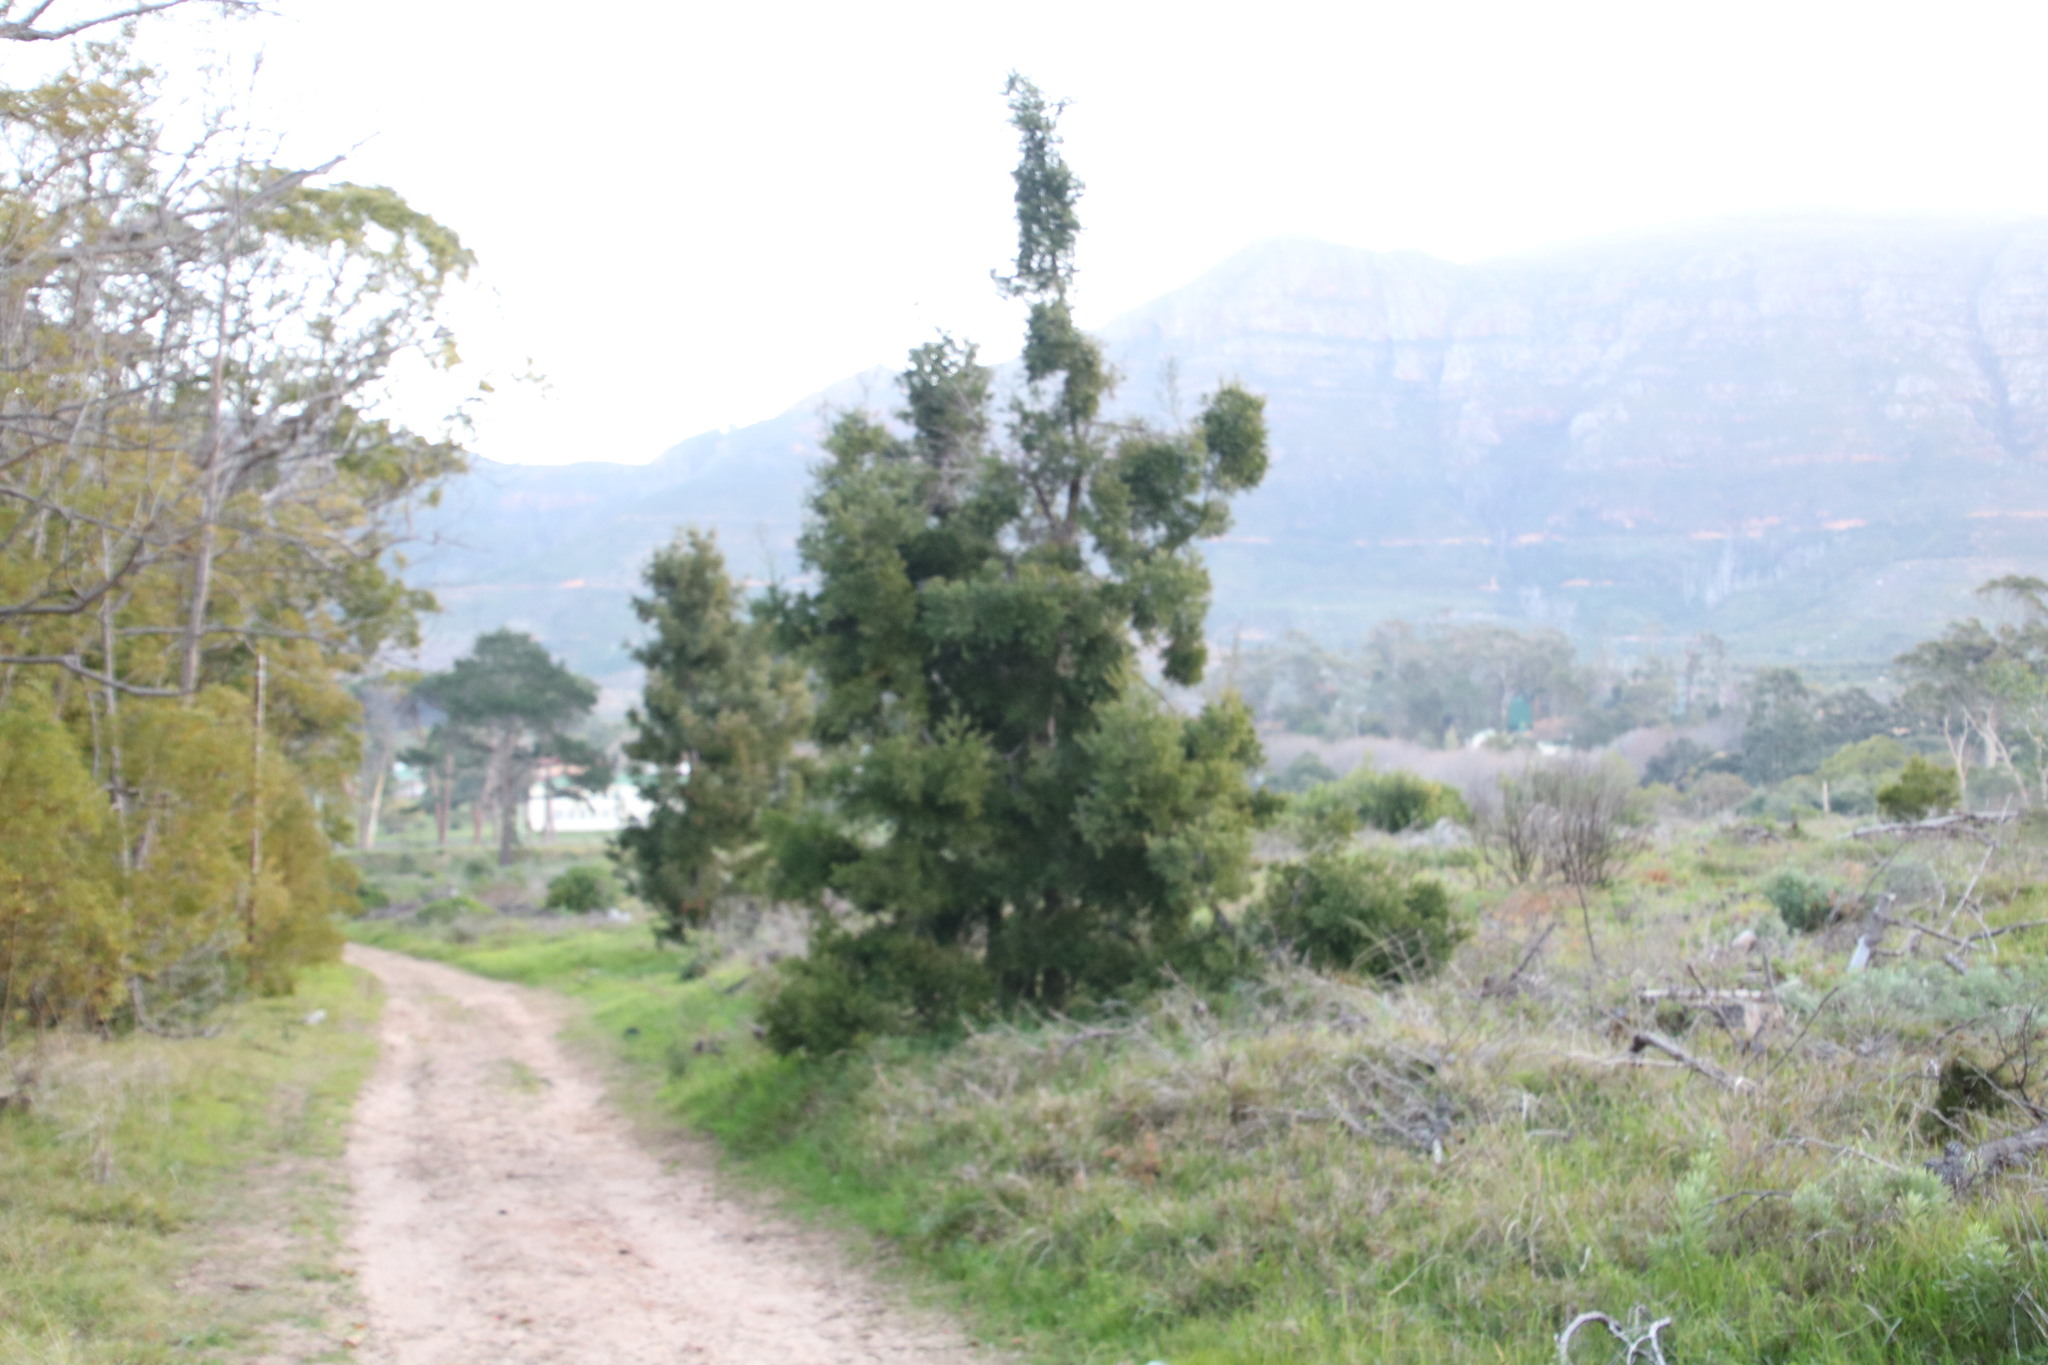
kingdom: Plantae
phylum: Tracheophyta
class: Pinopsida
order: Pinales
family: Podocarpaceae
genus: Afrocarpus
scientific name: Afrocarpus falcatus
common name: Bastard yellowwood
